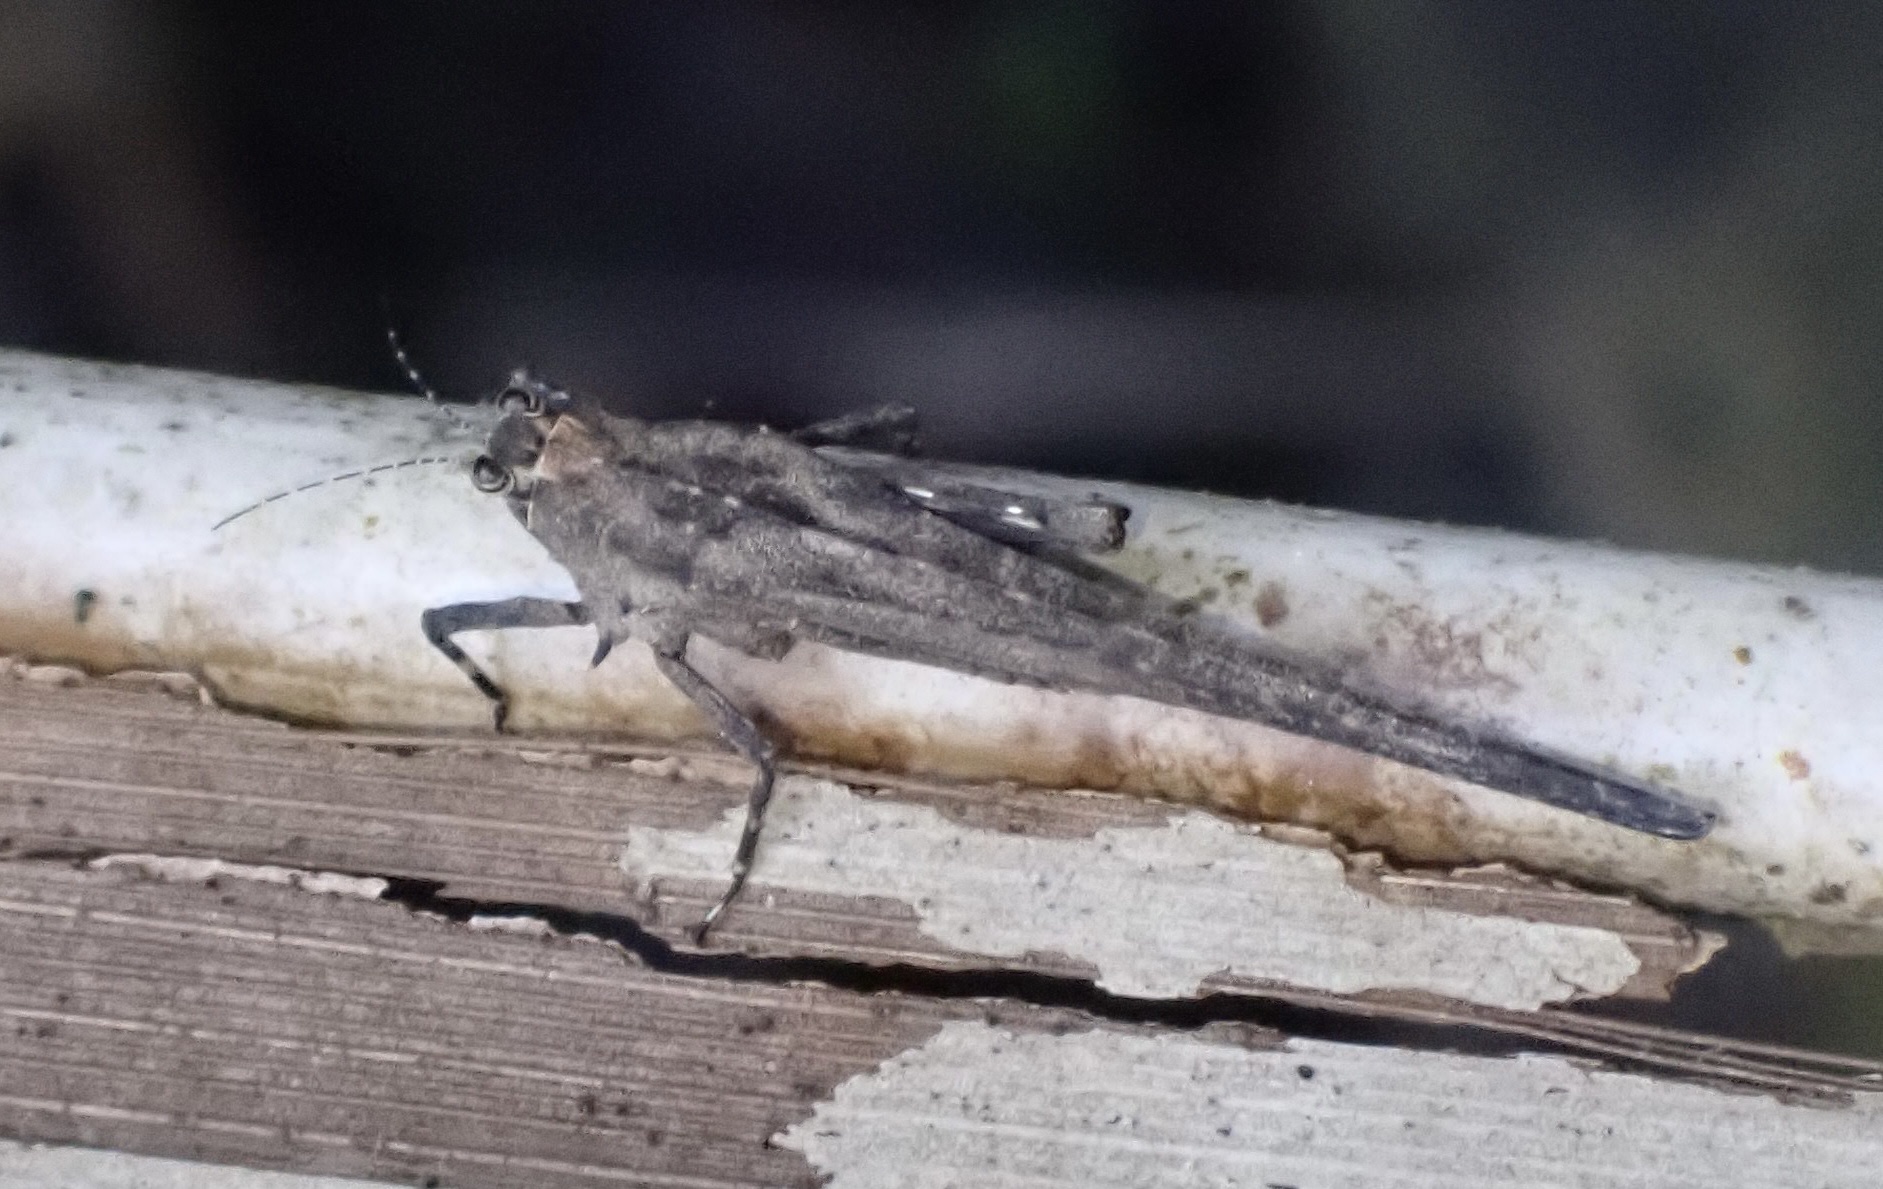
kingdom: Animalia
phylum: Arthropoda
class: Insecta
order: Orthoptera
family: Tetrigidae
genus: Scelimena
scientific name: Scelimena celebica
